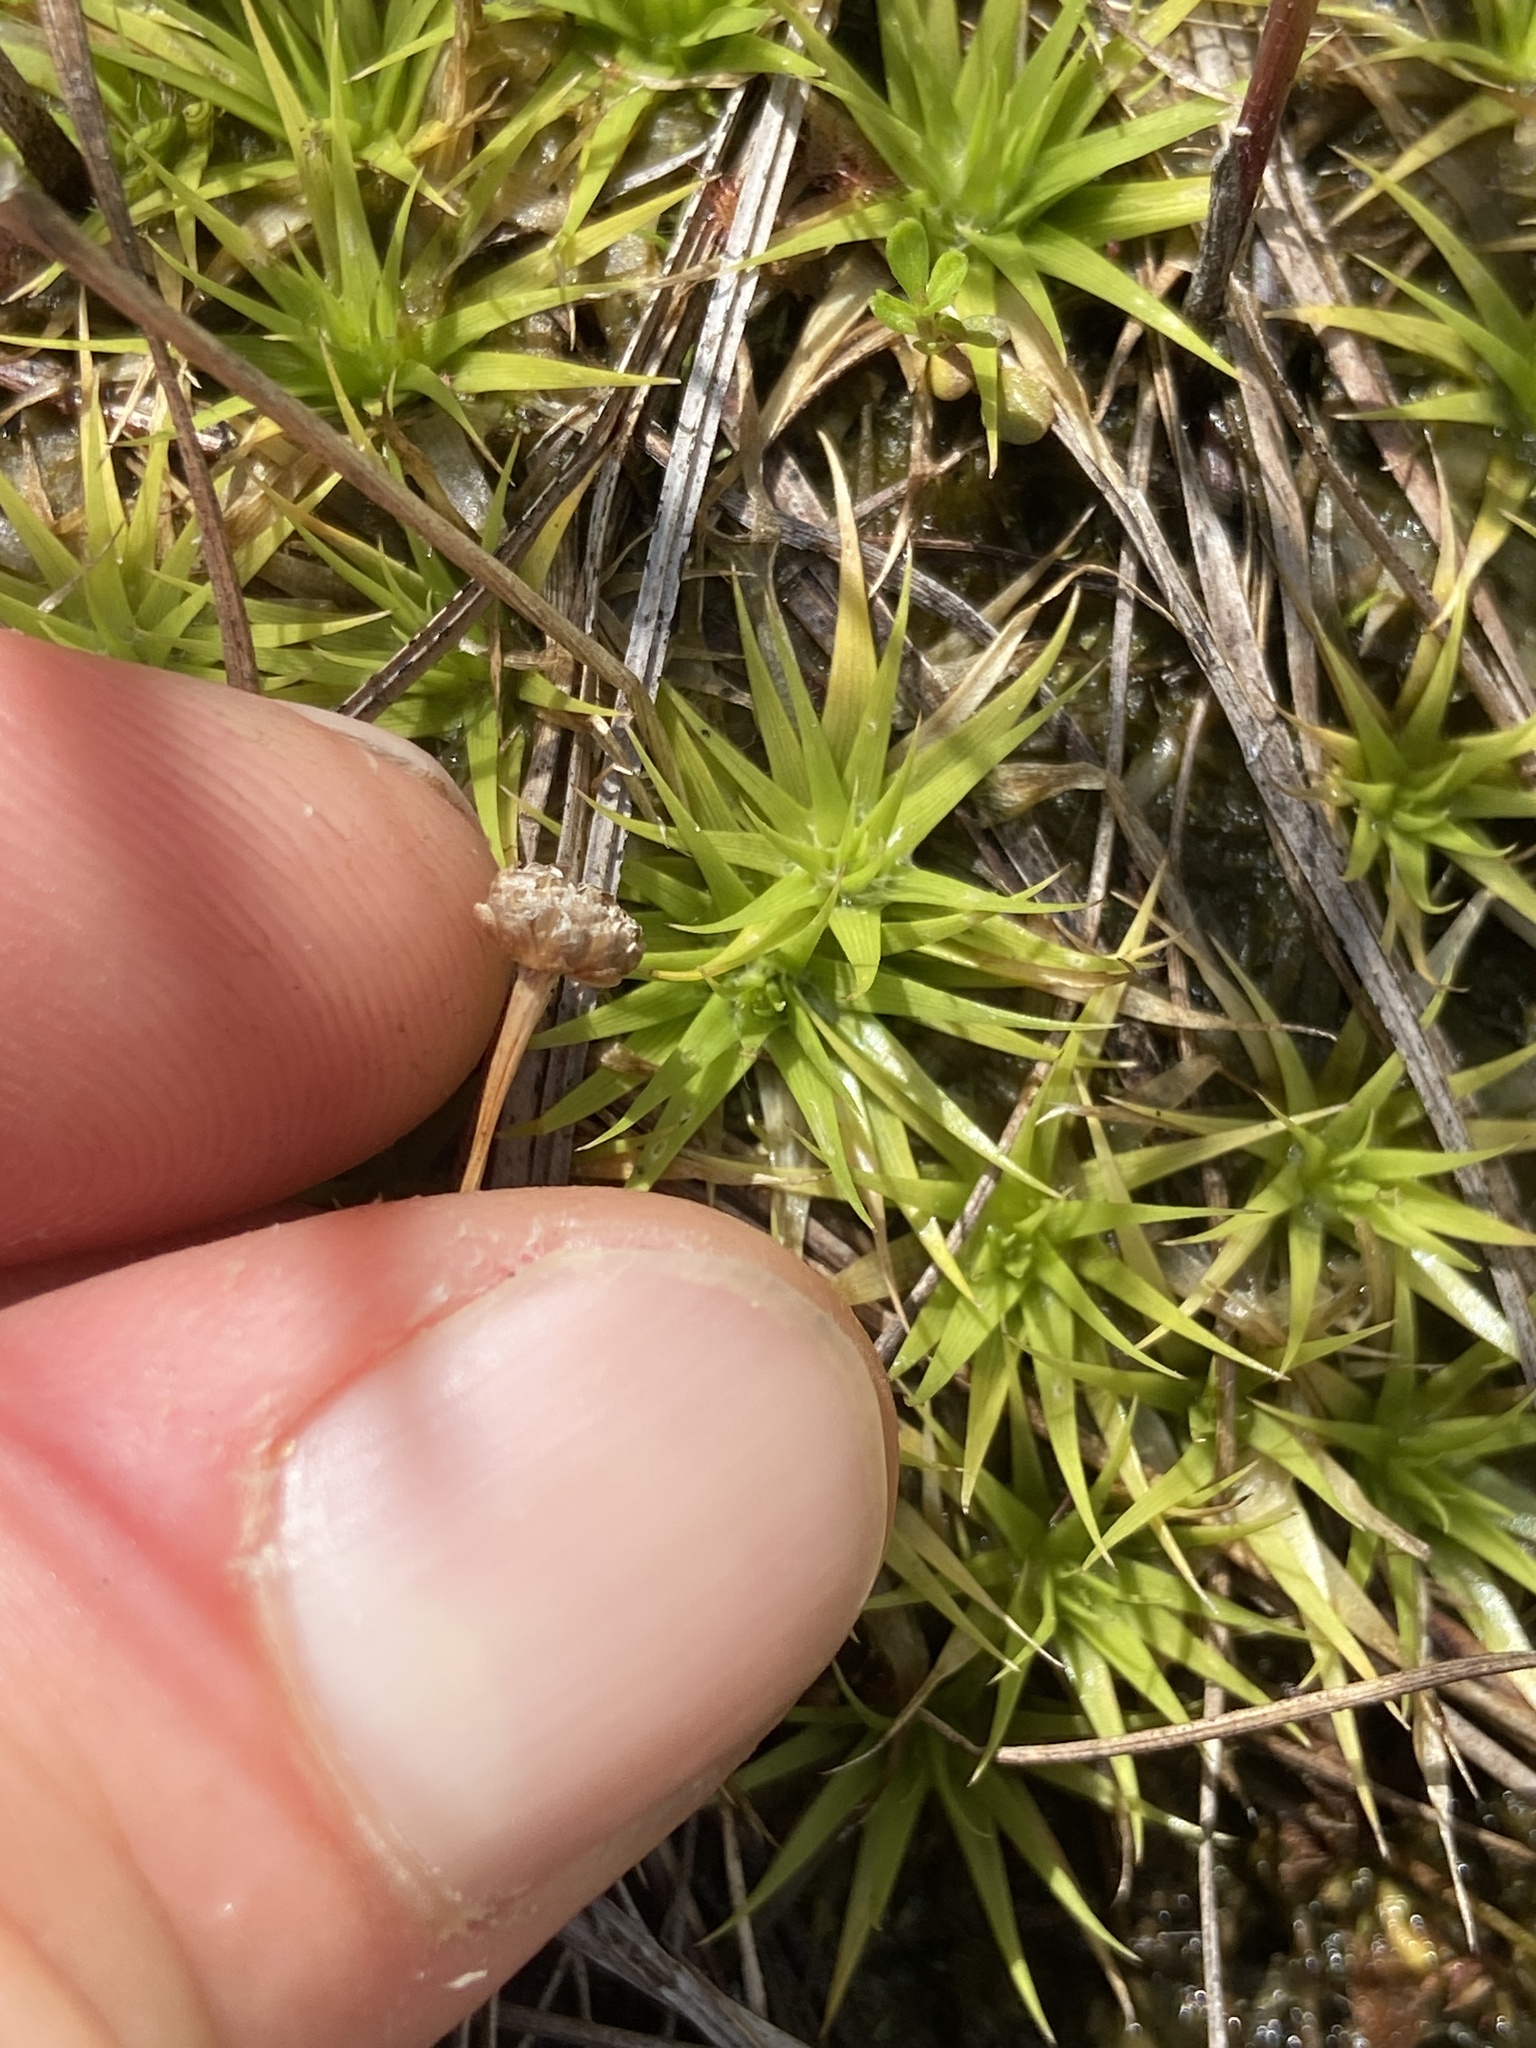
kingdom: Plantae
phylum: Tracheophyta
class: Liliopsida
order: Poales
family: Eriocaulaceae
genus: Eriocaulon
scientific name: Eriocaulon texense
